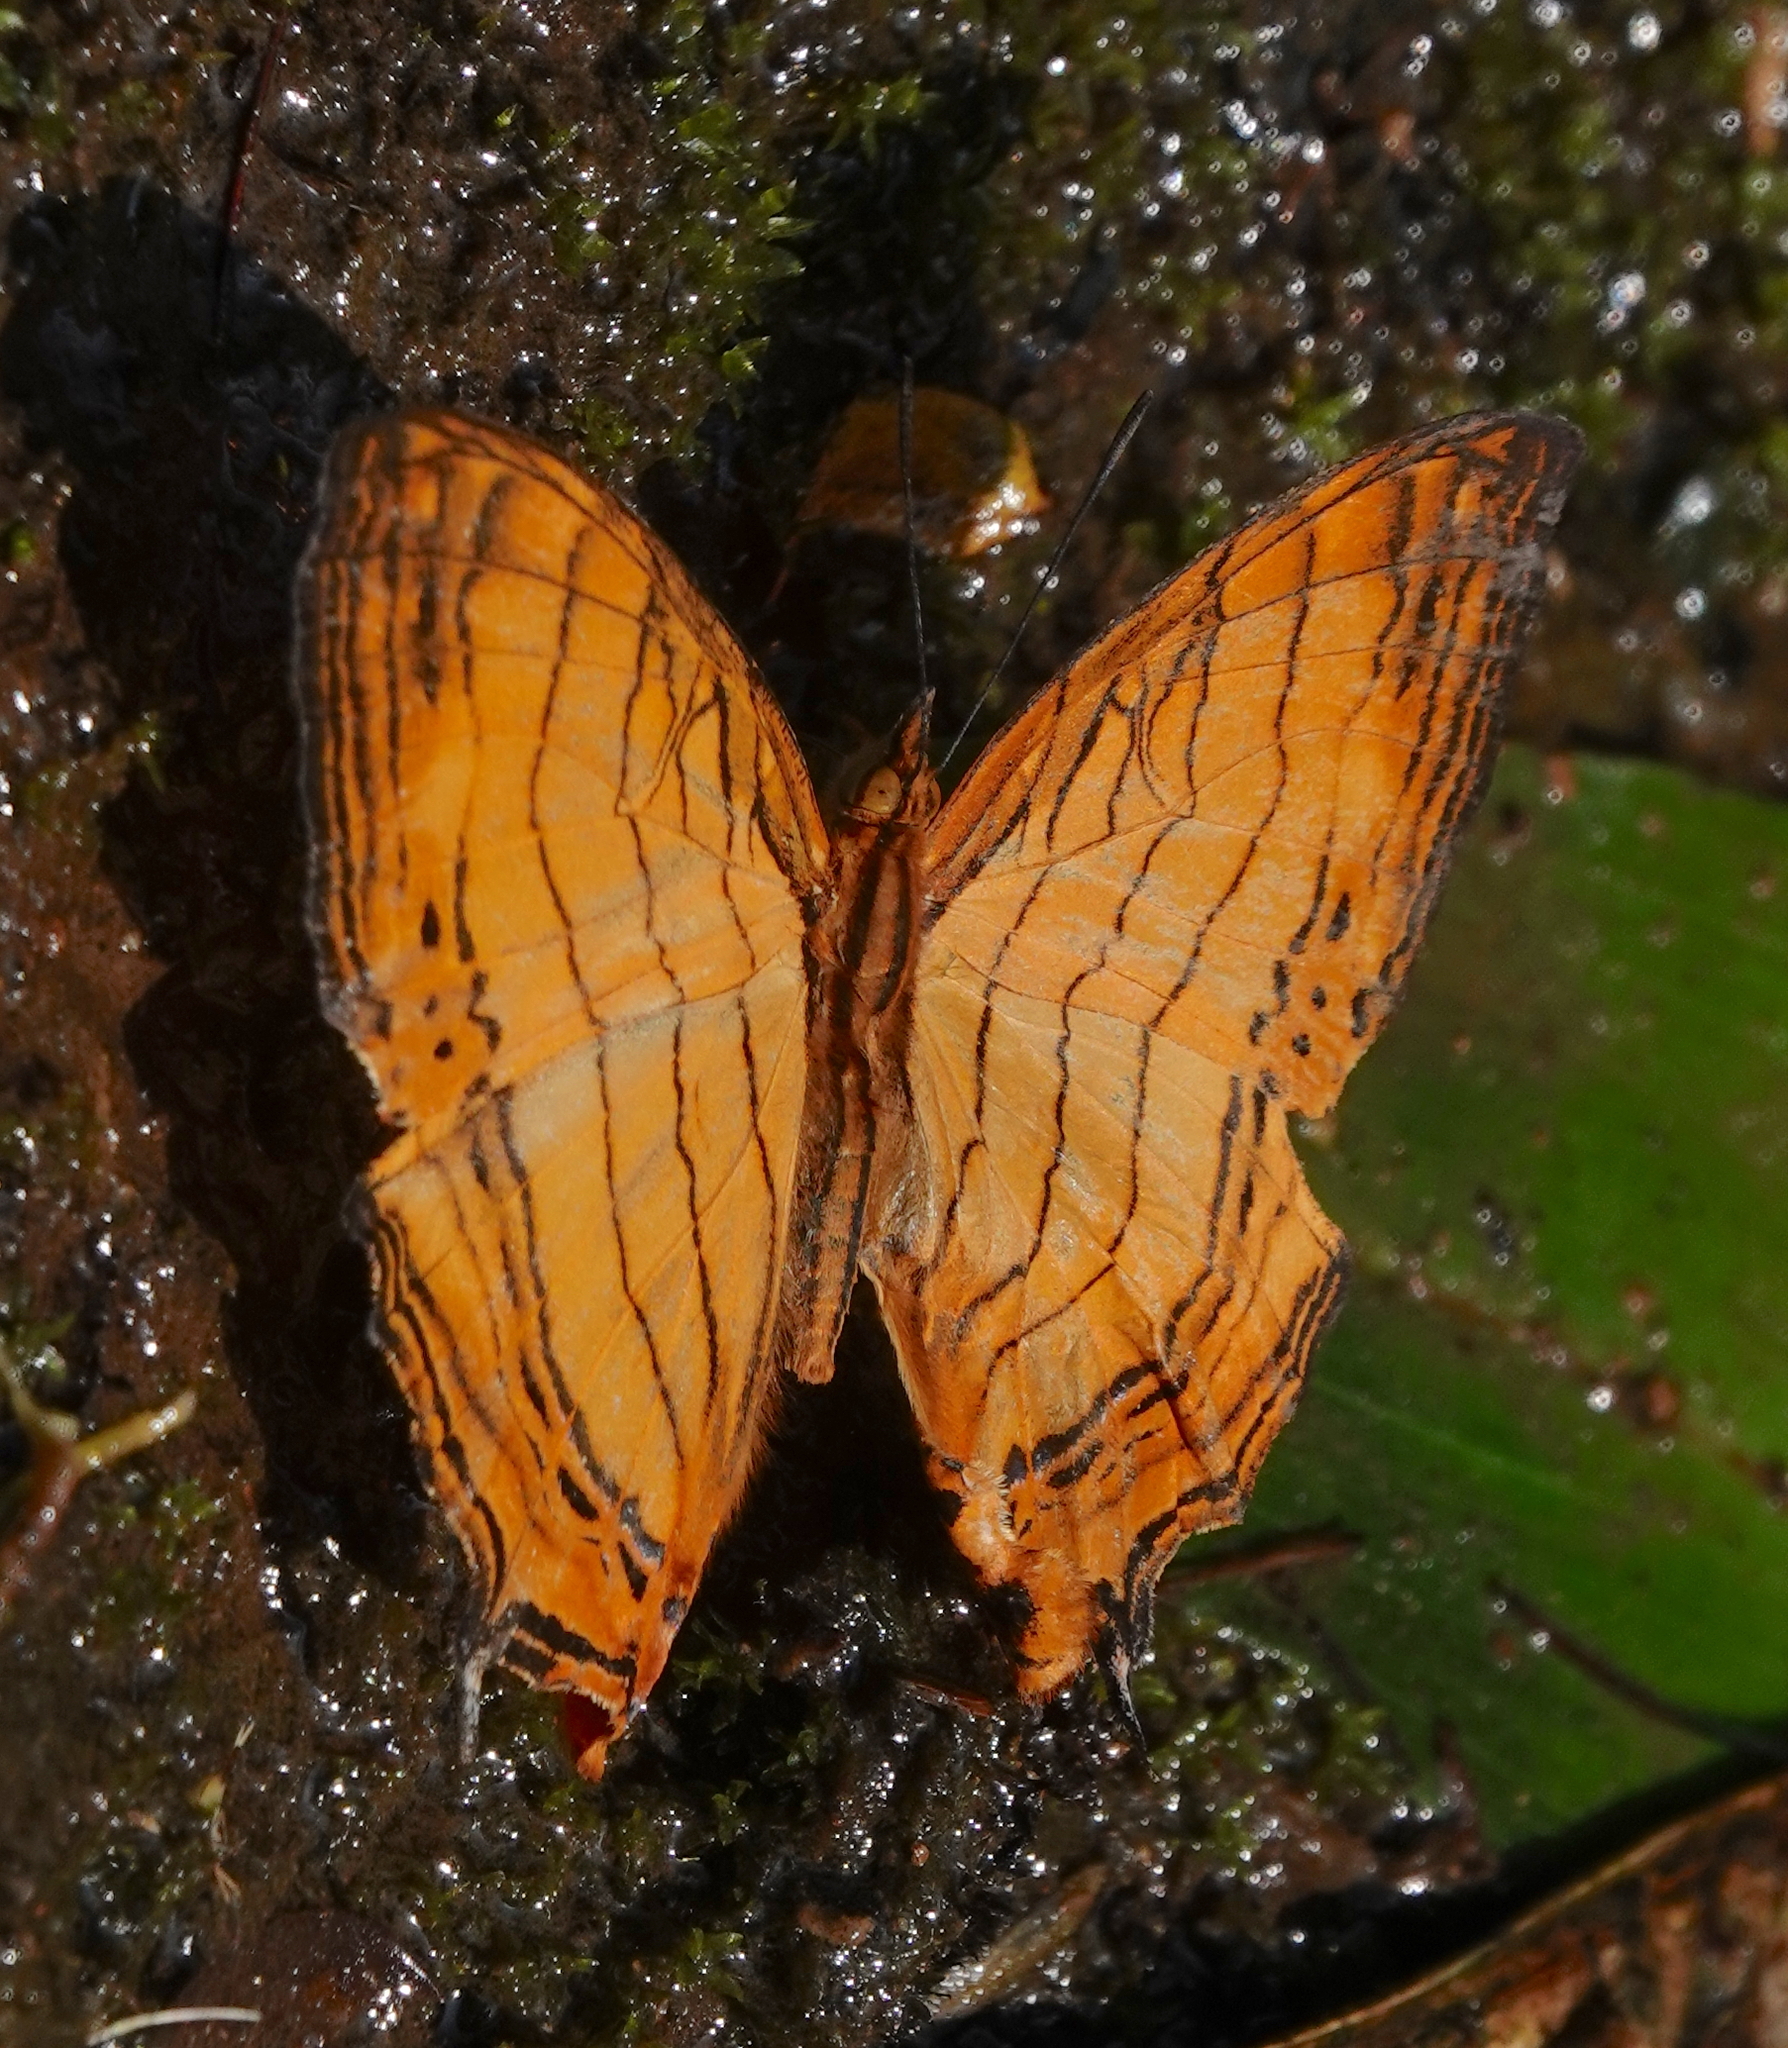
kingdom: Animalia
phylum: Arthropoda
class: Insecta
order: Lepidoptera
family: Nymphalidae
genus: Cyrestis
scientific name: Cyrestis lutea
